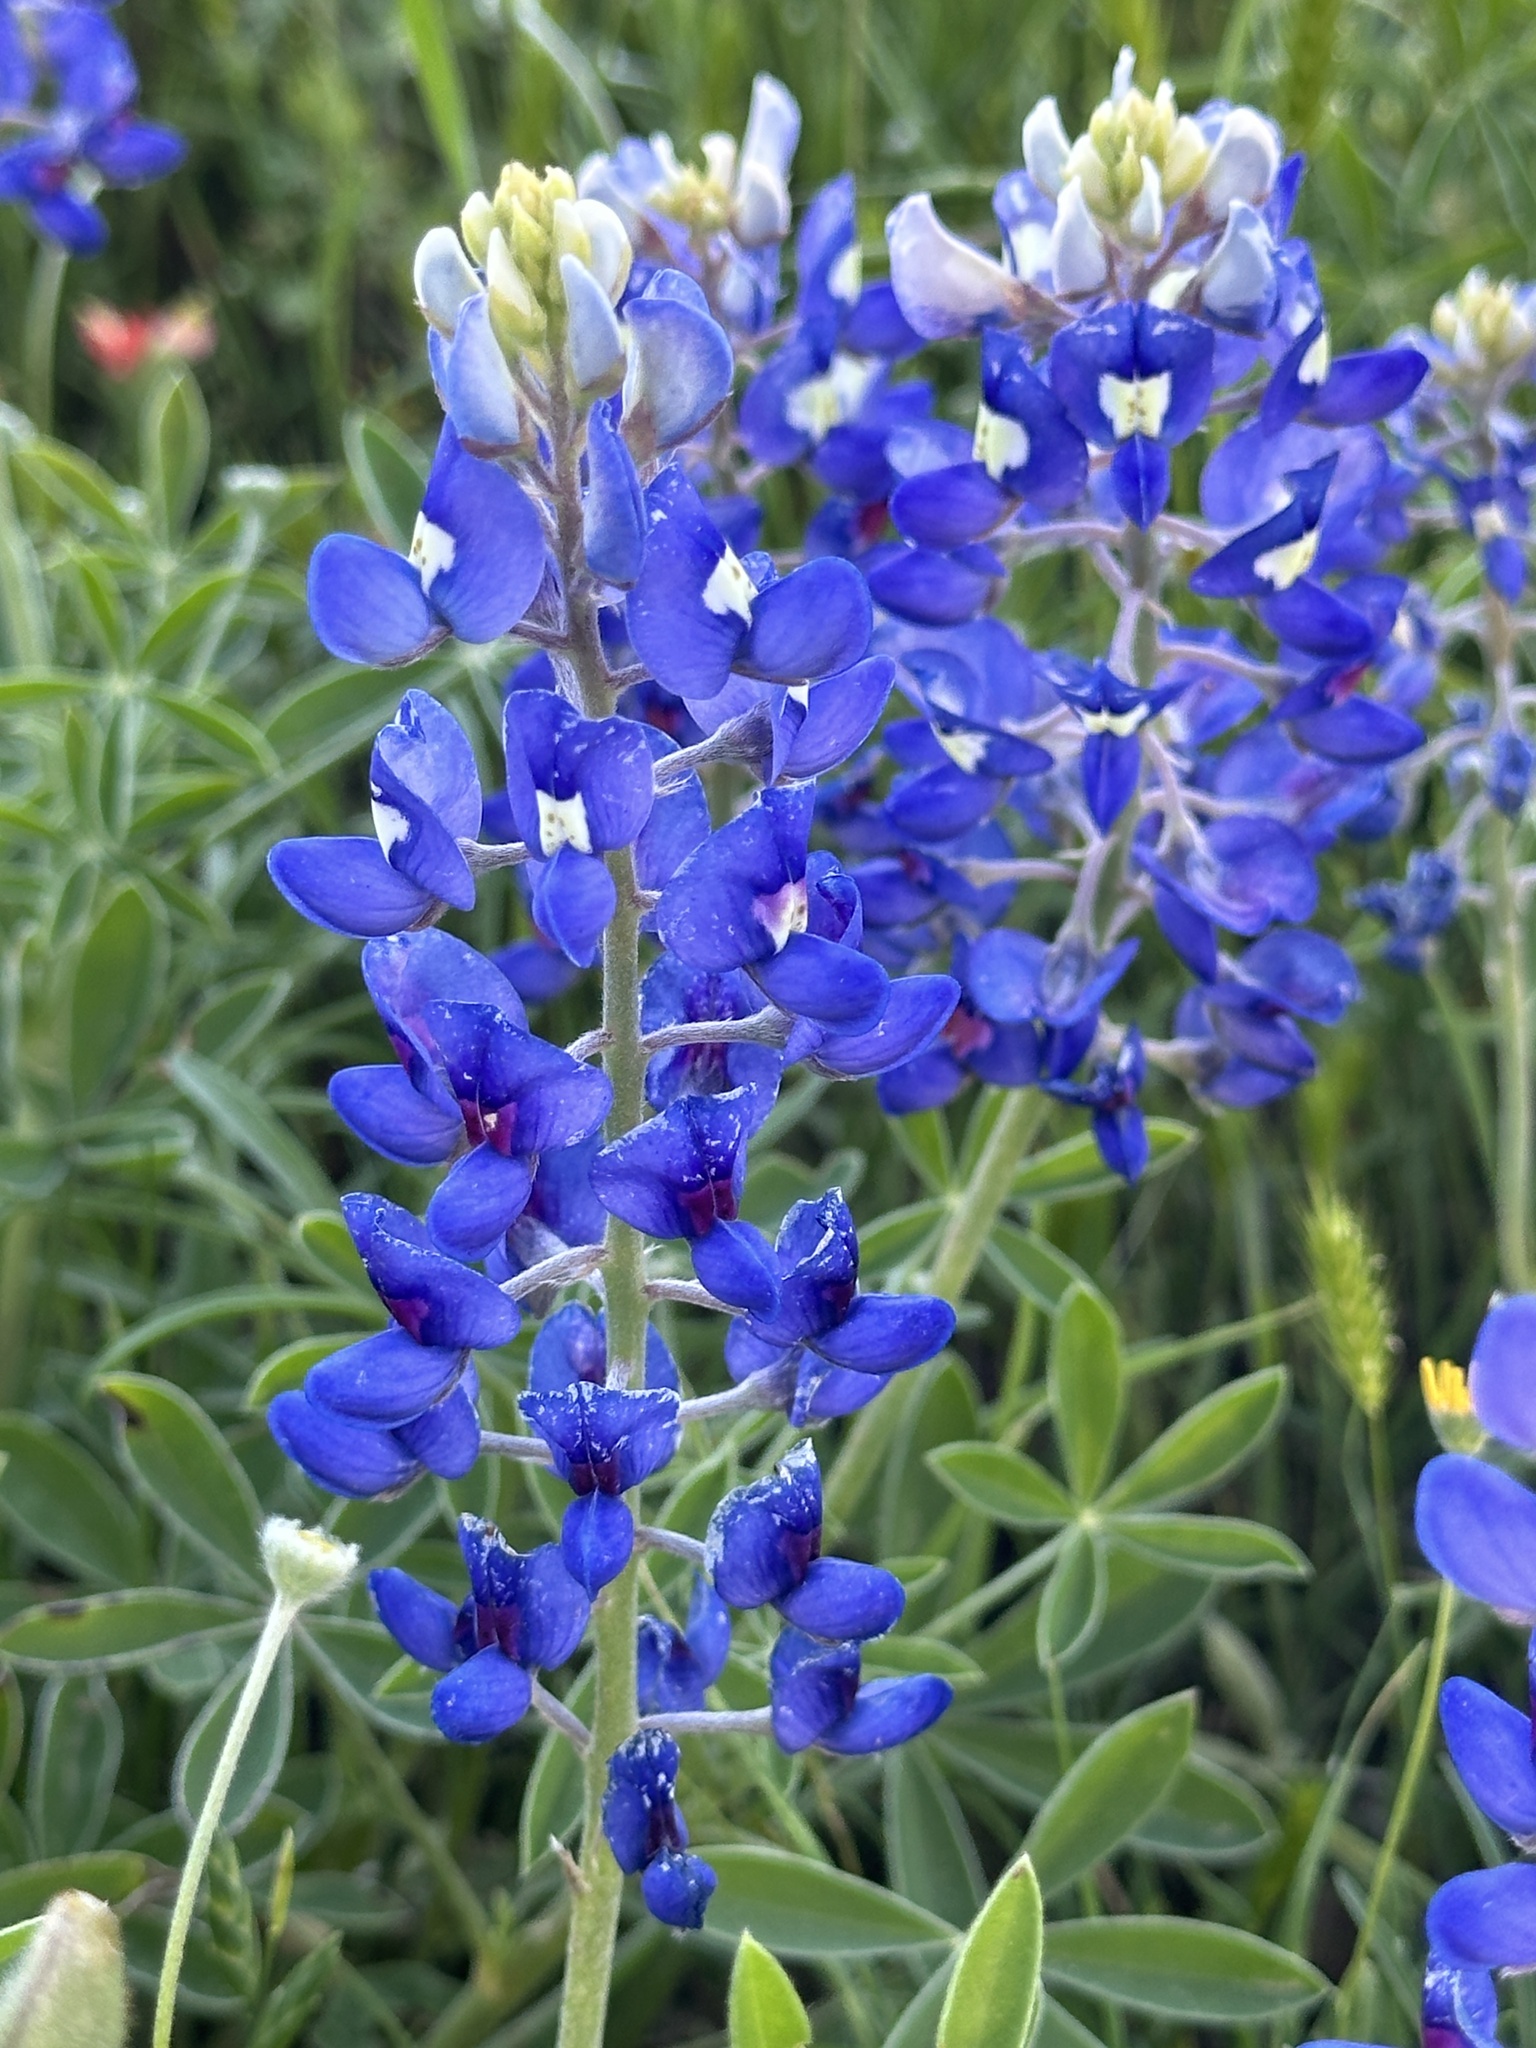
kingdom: Plantae
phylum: Tracheophyta
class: Magnoliopsida
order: Fabales
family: Fabaceae
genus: Lupinus
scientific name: Lupinus texensis
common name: Texas bluebonnet
